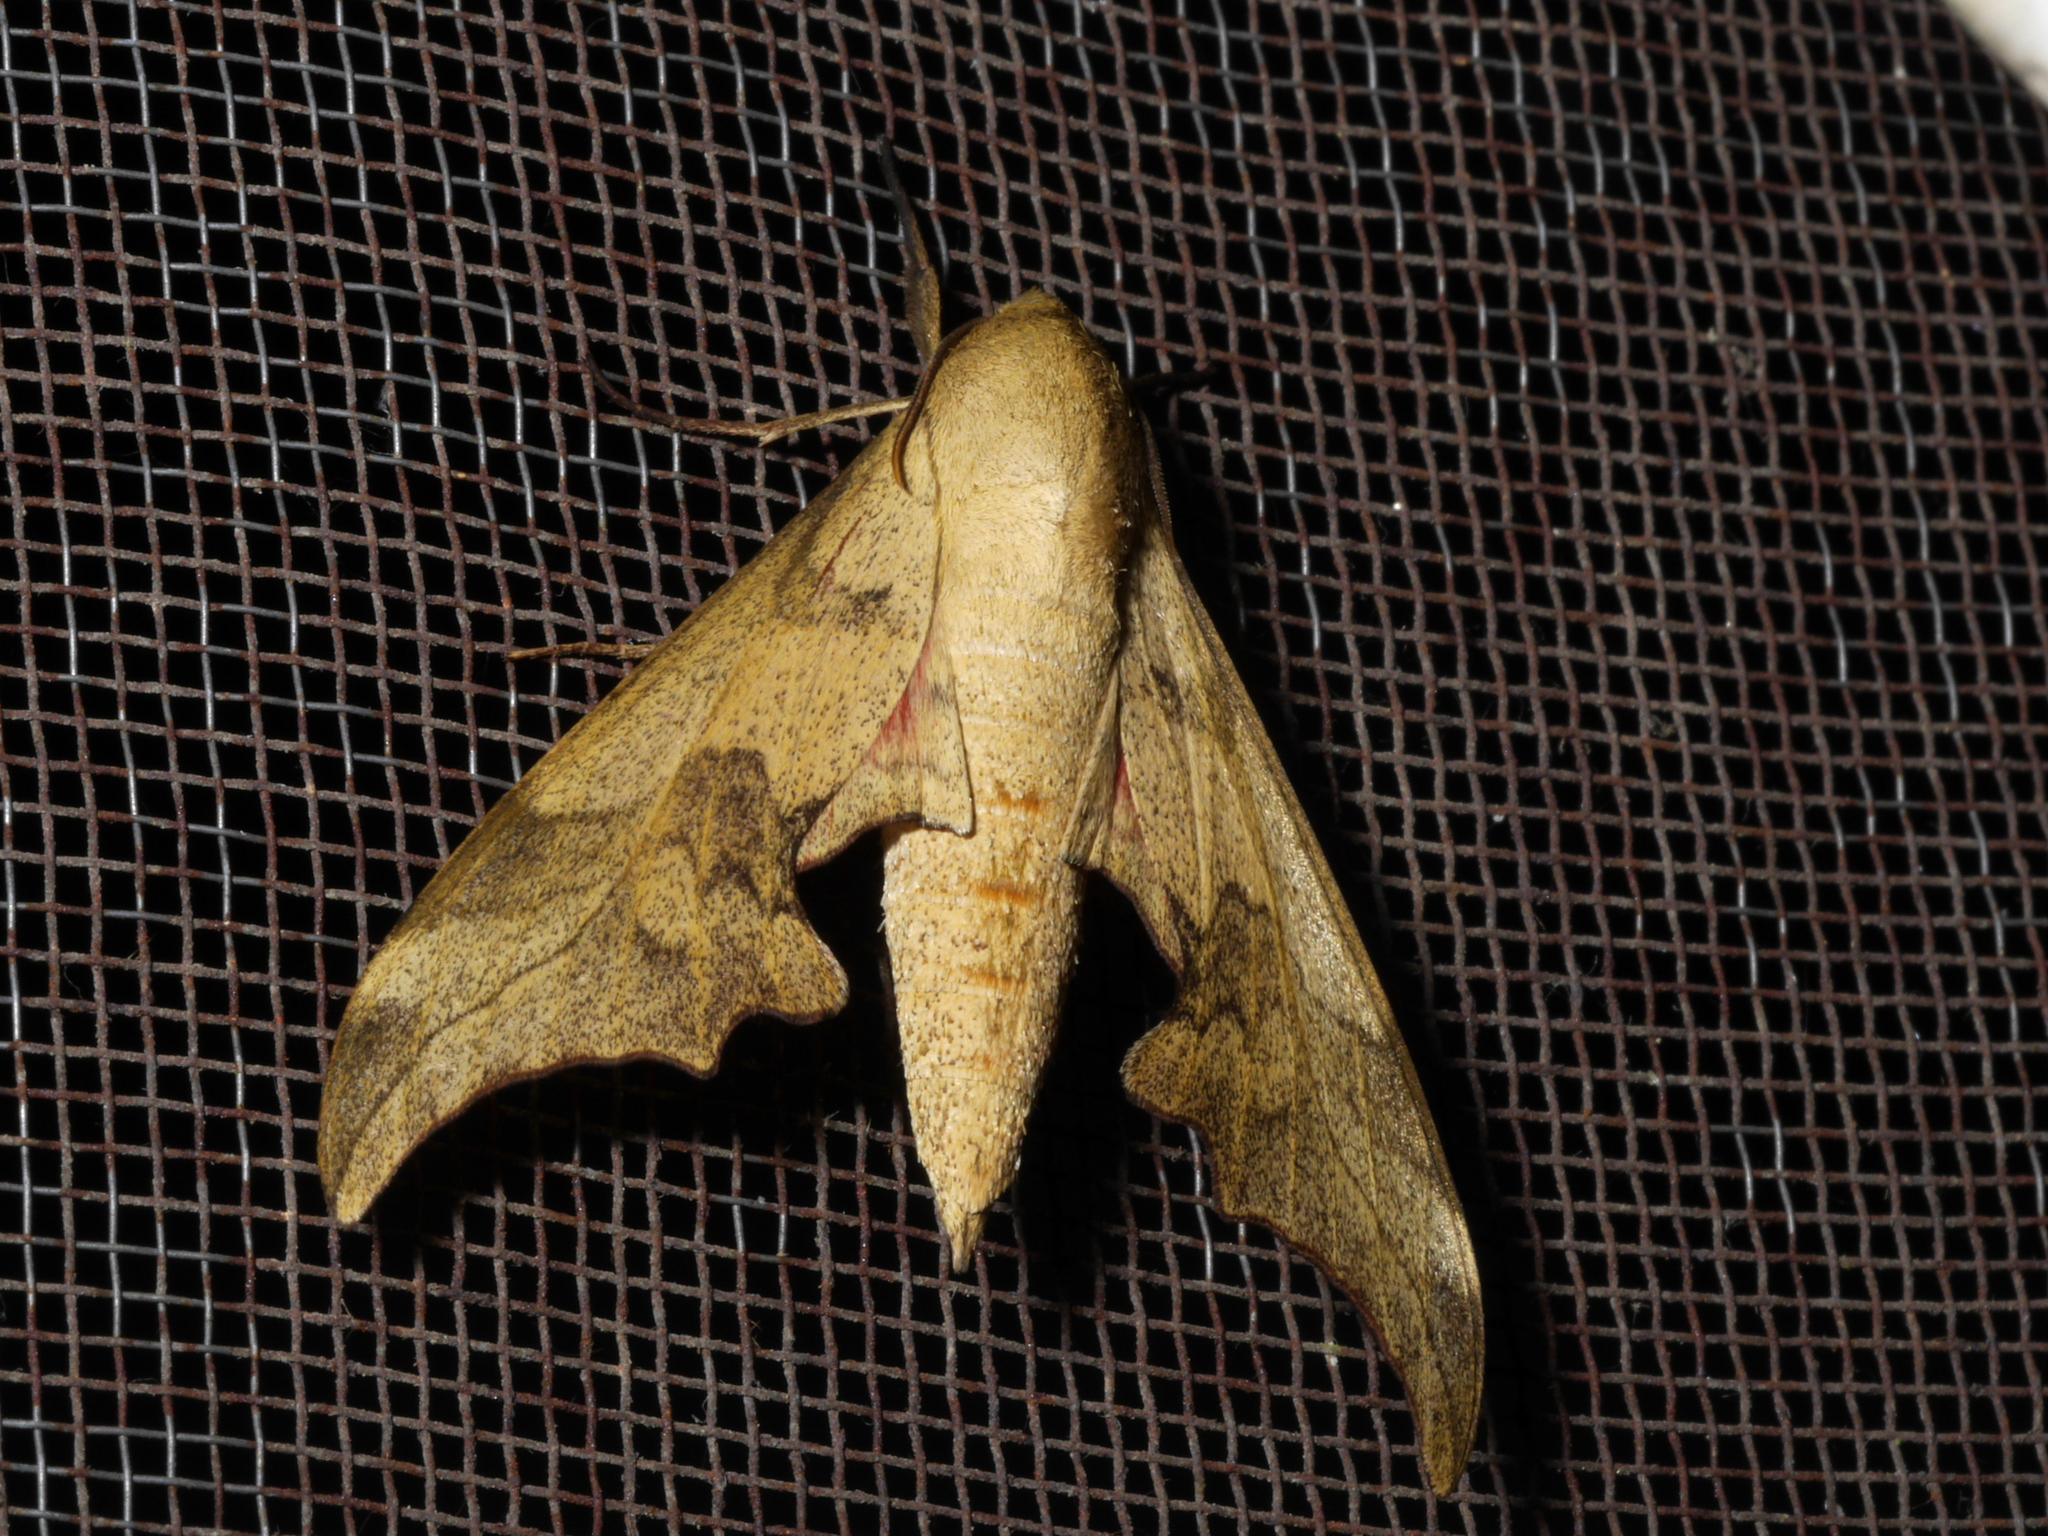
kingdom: Animalia
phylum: Arthropoda
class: Insecta
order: Lepidoptera
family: Sphingidae
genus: Phylloxiphia
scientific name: Phylloxiphia illustris
